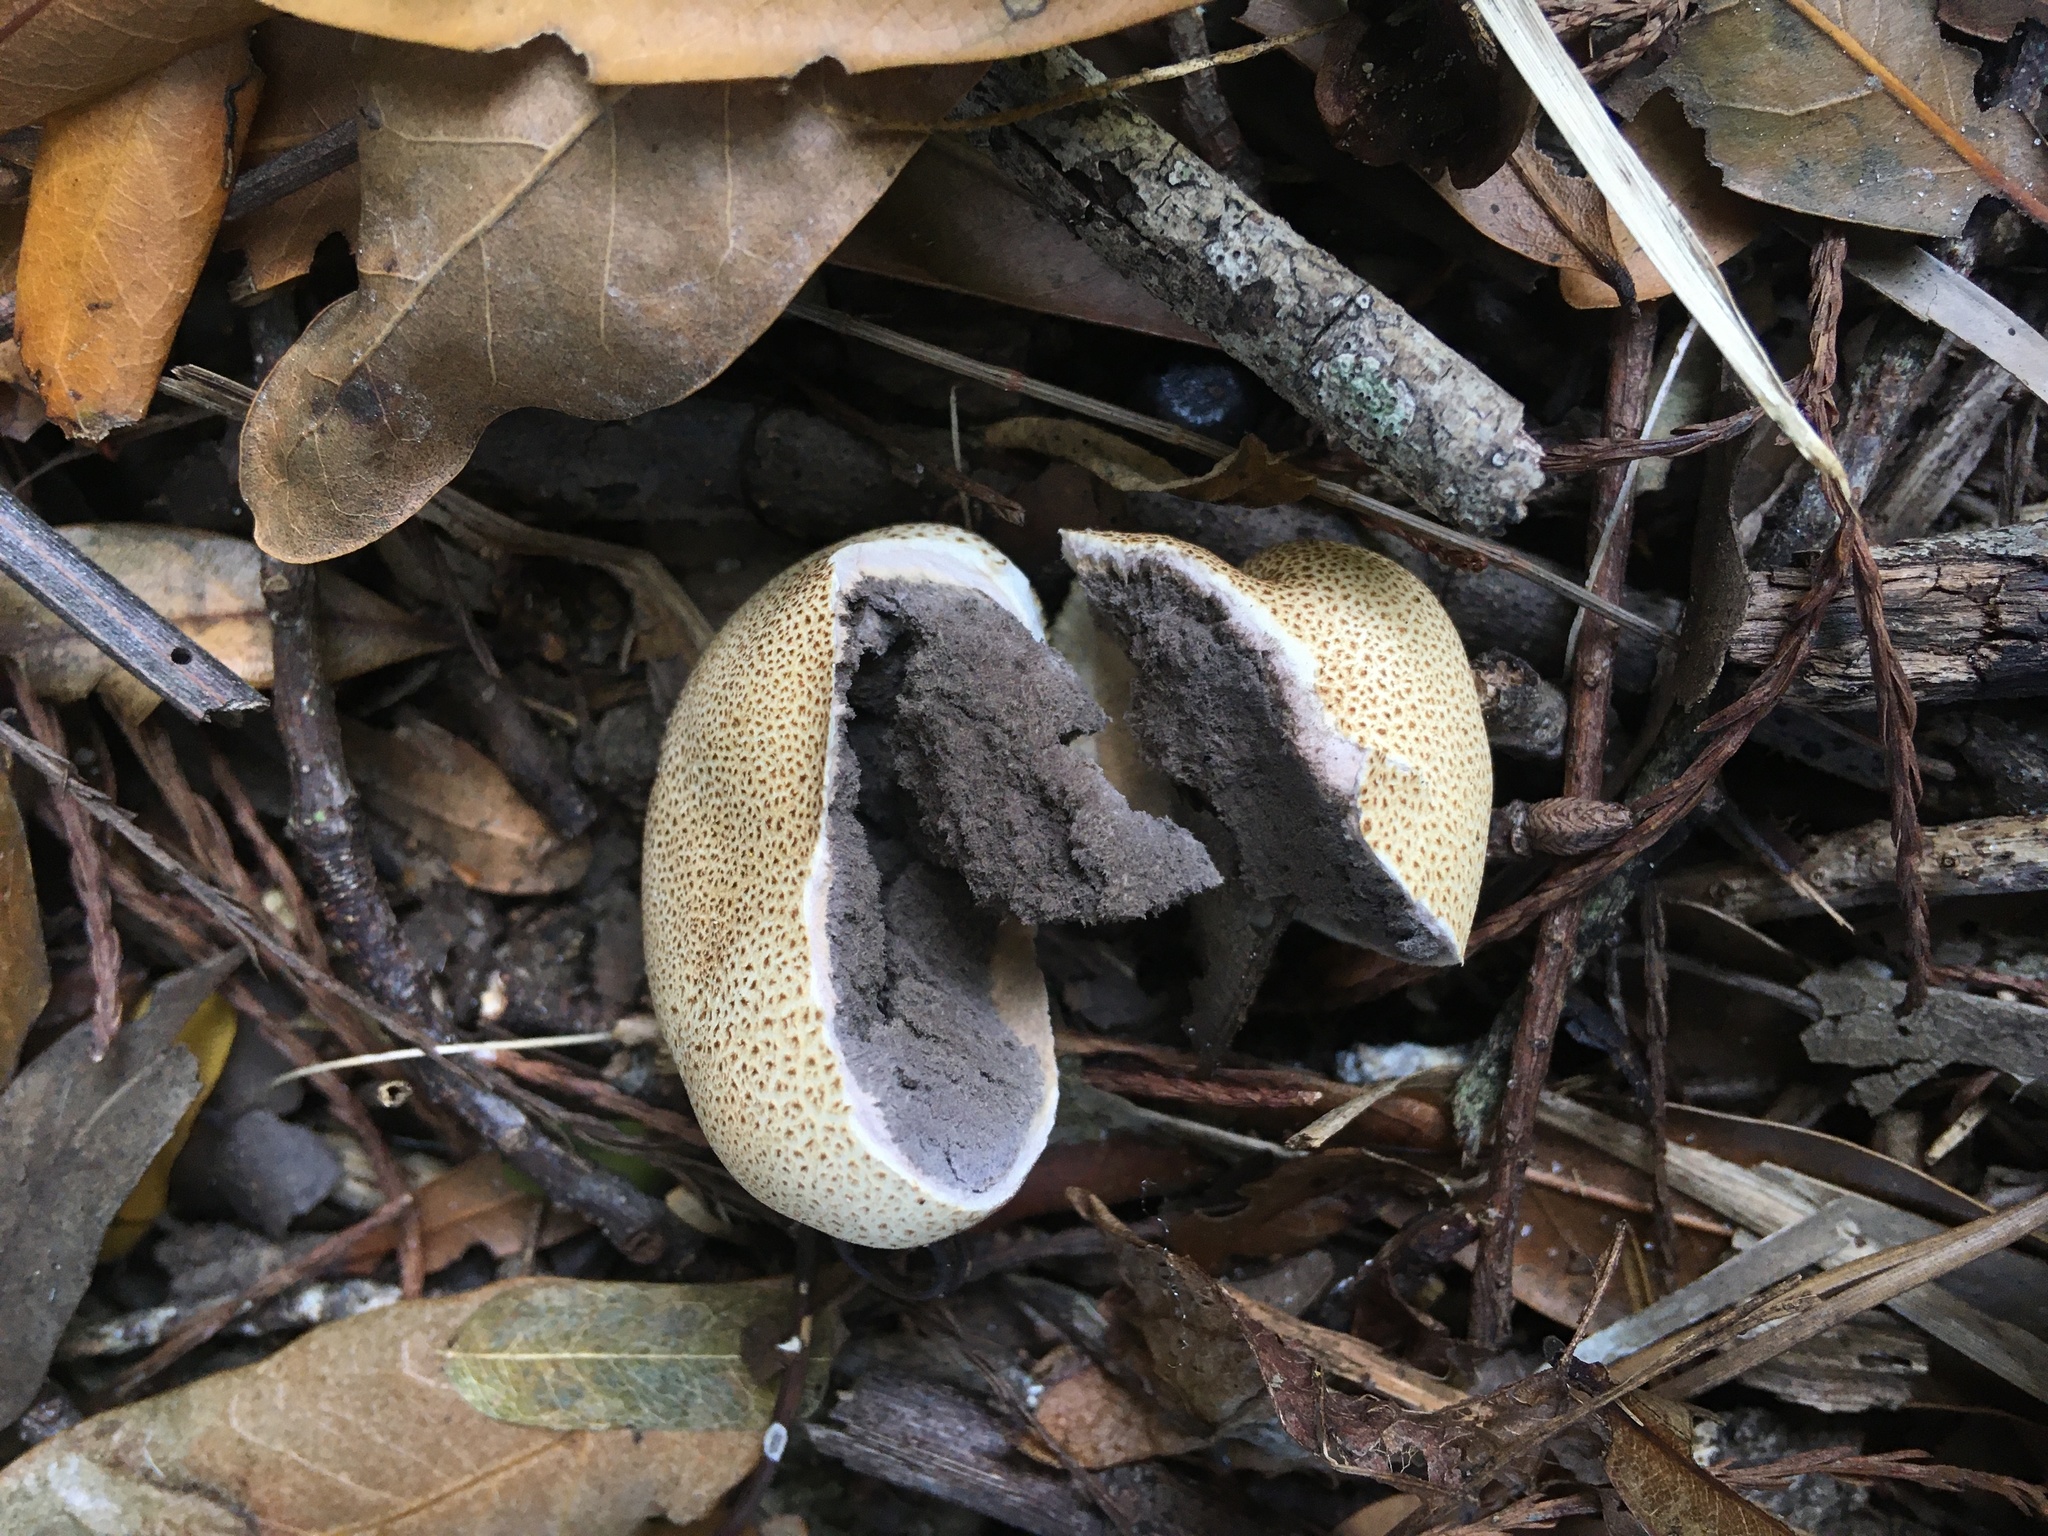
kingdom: Fungi
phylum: Basidiomycota
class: Agaricomycetes
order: Boletales
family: Sclerodermataceae
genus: Scleroderma
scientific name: Scleroderma citrinum
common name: Common earthball
